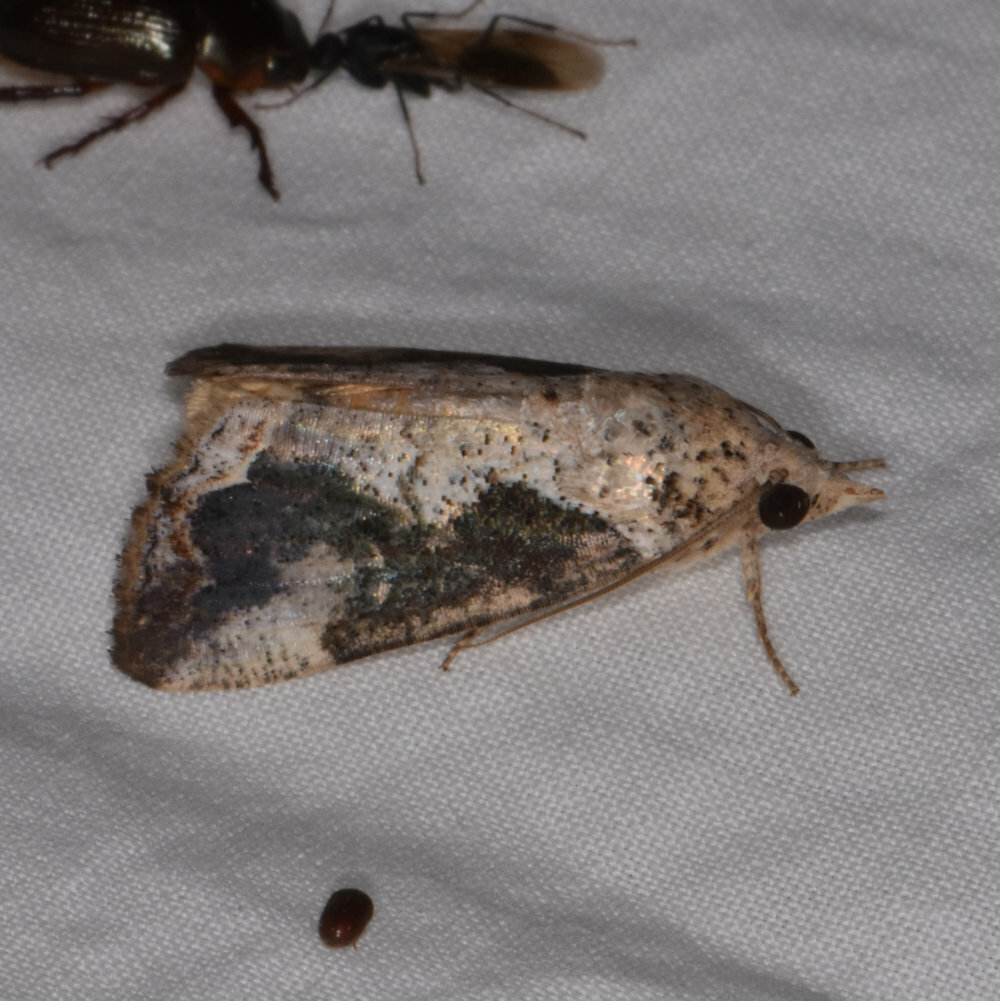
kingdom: Animalia
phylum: Arthropoda
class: Insecta
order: Lepidoptera
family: Erebidae
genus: Hypocala
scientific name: Hypocala rostrata
